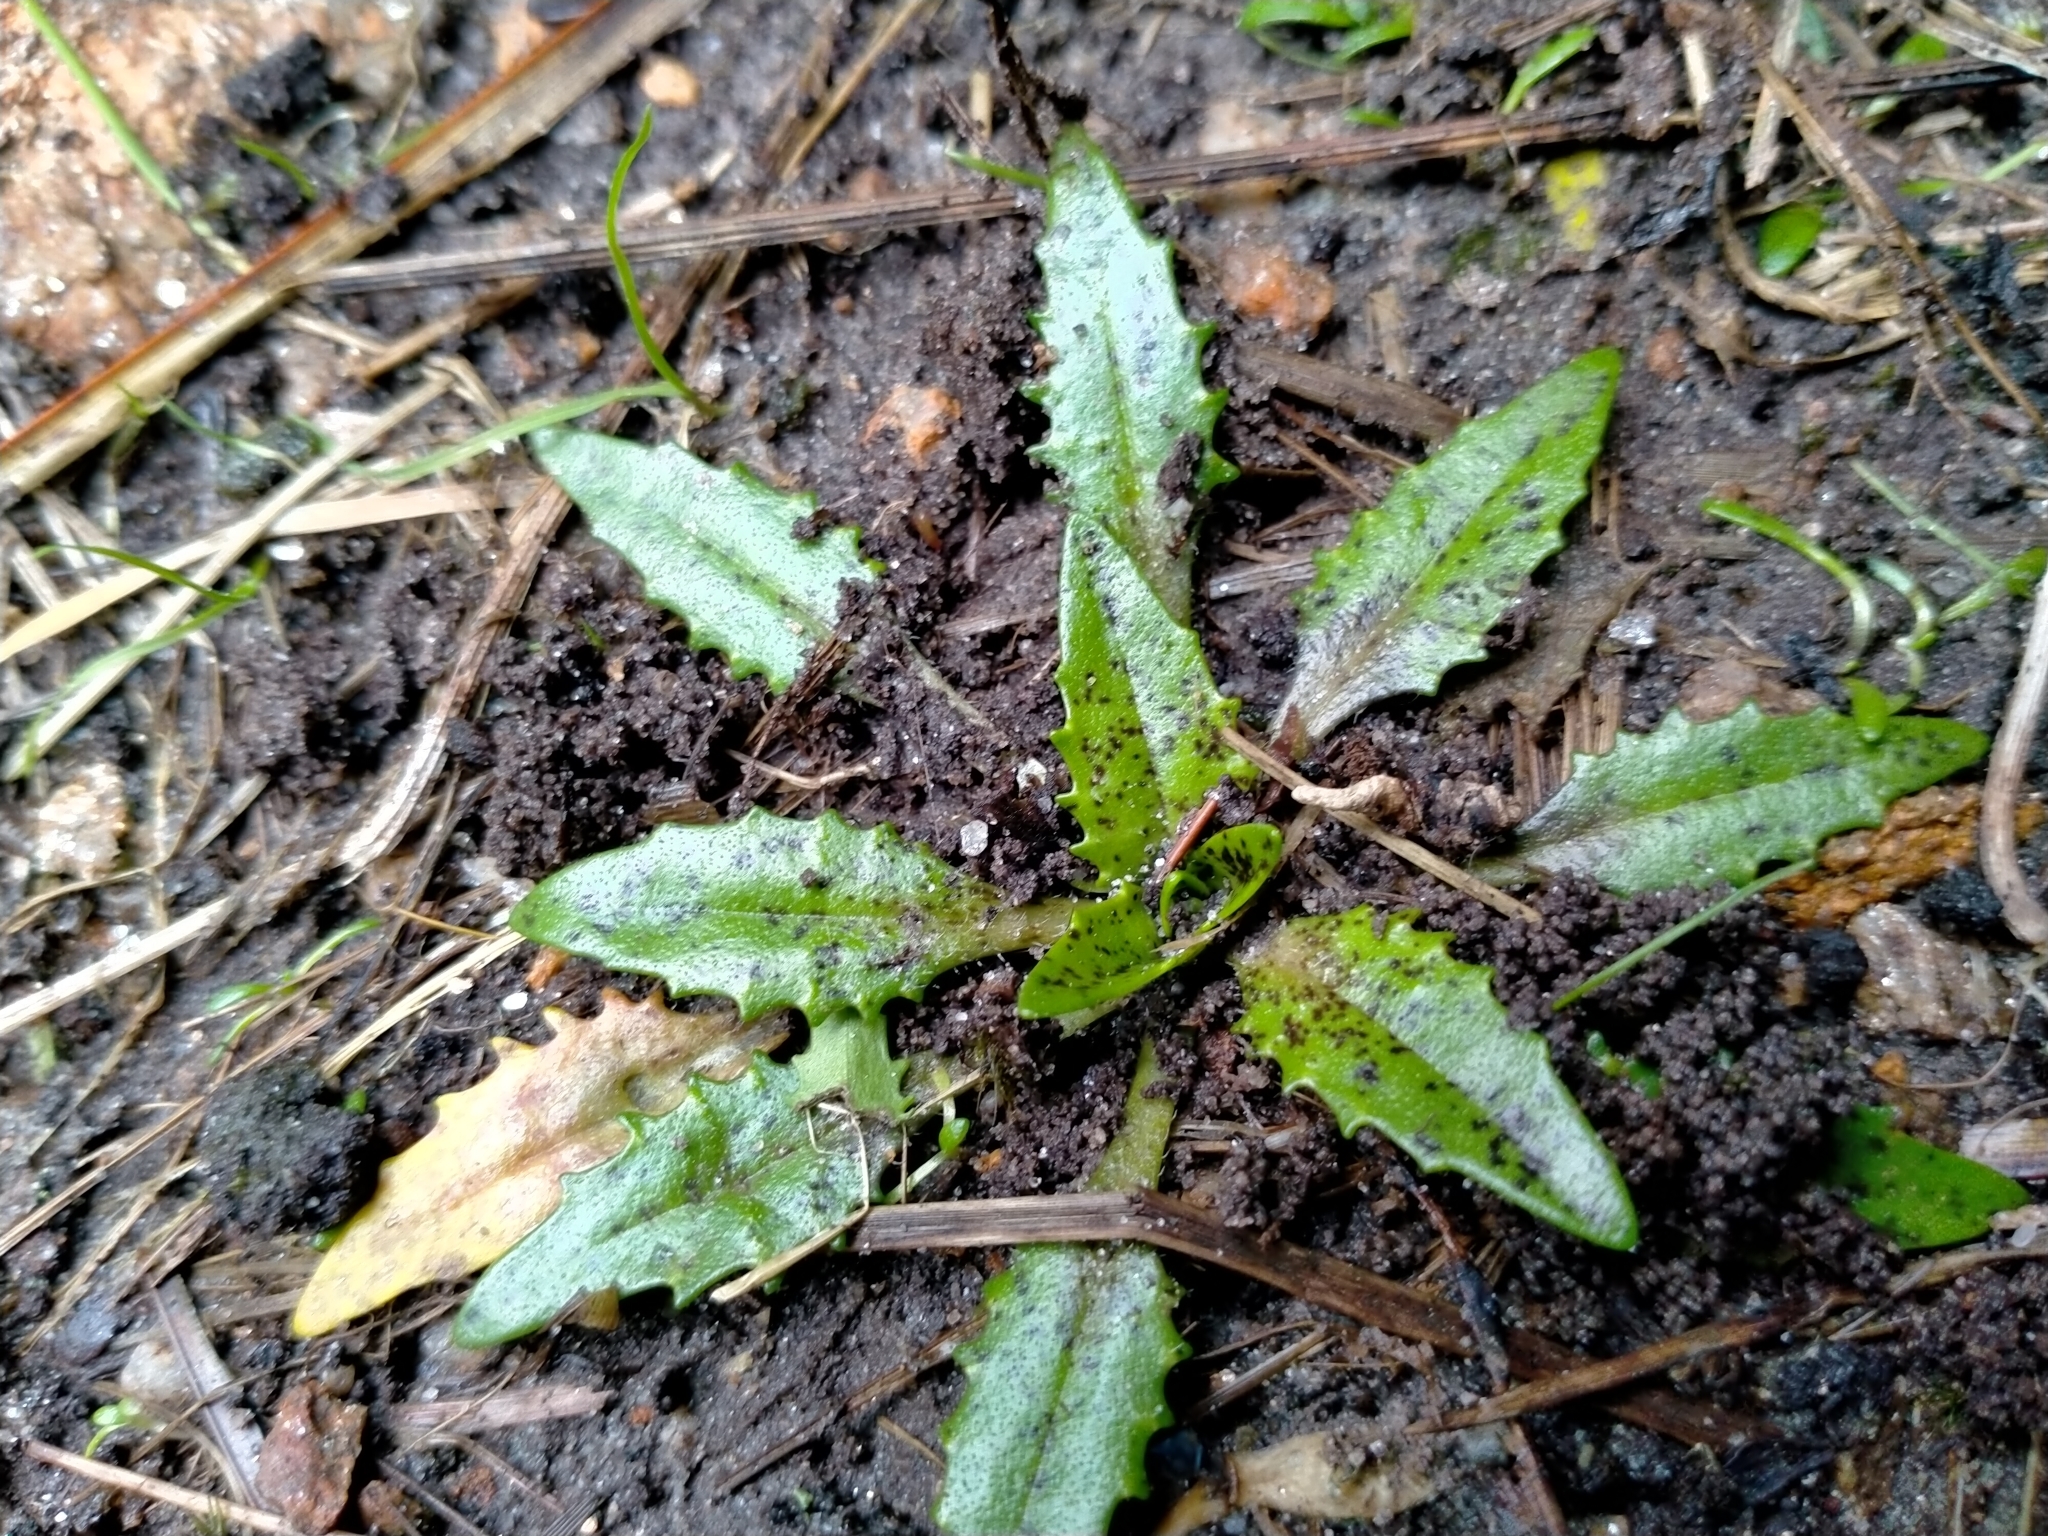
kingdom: Plantae
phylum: Tracheophyta
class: Magnoliopsida
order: Lamiales
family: Plantaginaceae
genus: Plantago
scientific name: Plantago triandra
